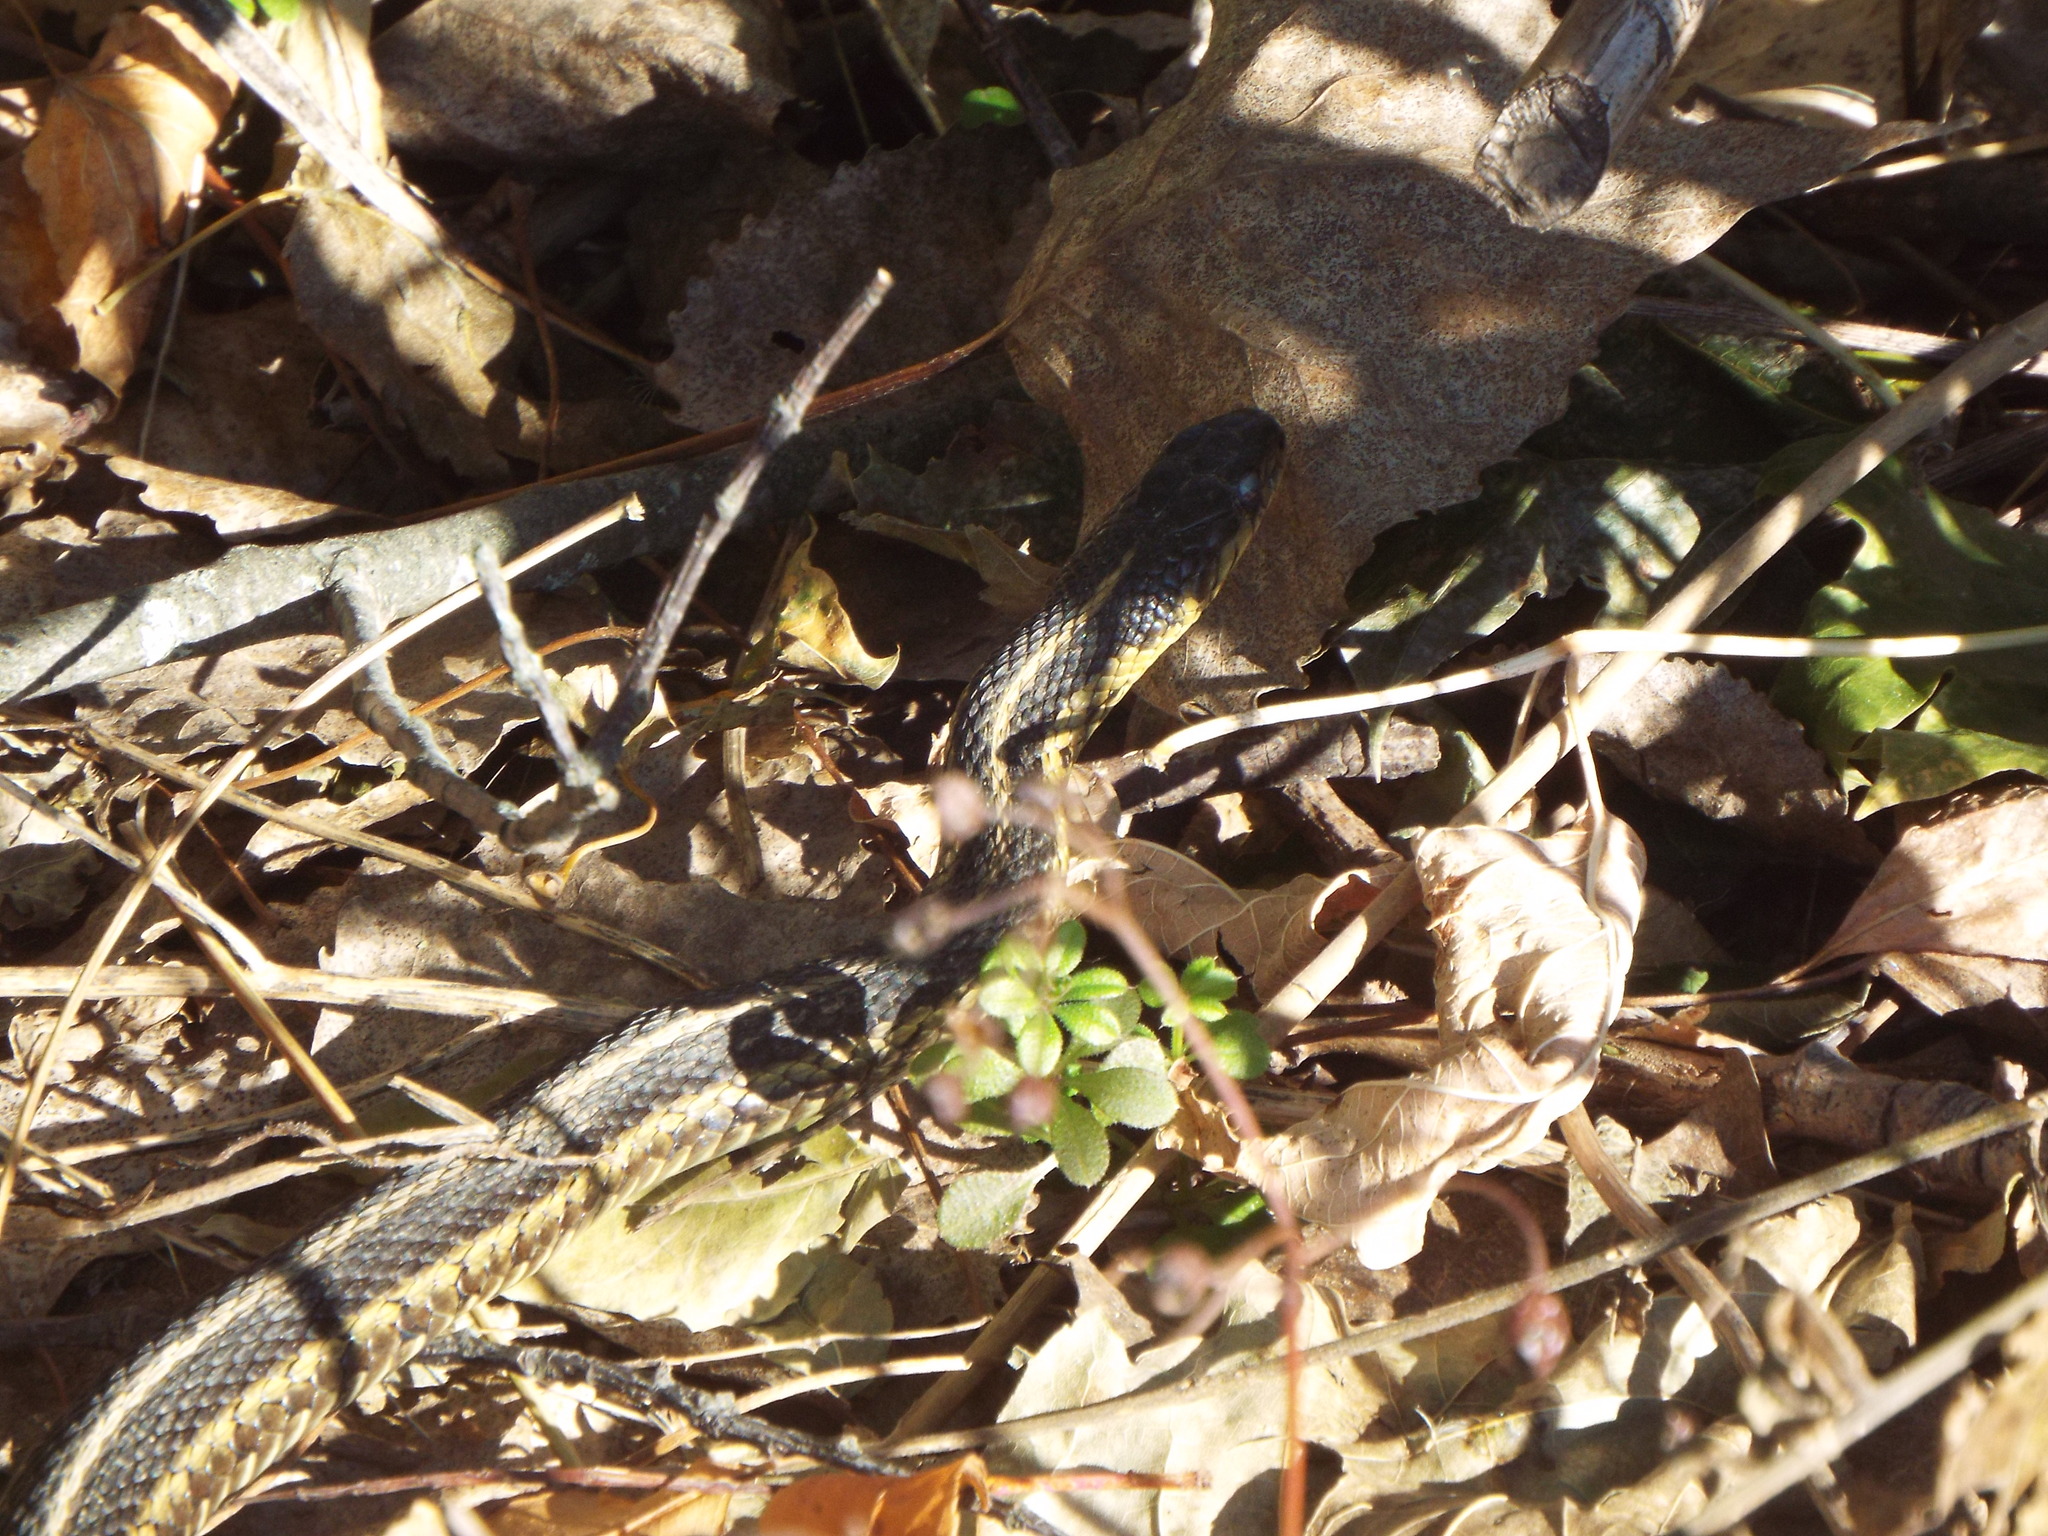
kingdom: Animalia
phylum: Chordata
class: Squamata
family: Colubridae
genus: Thamnophis
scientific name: Thamnophis sirtalis
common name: Common garter snake
